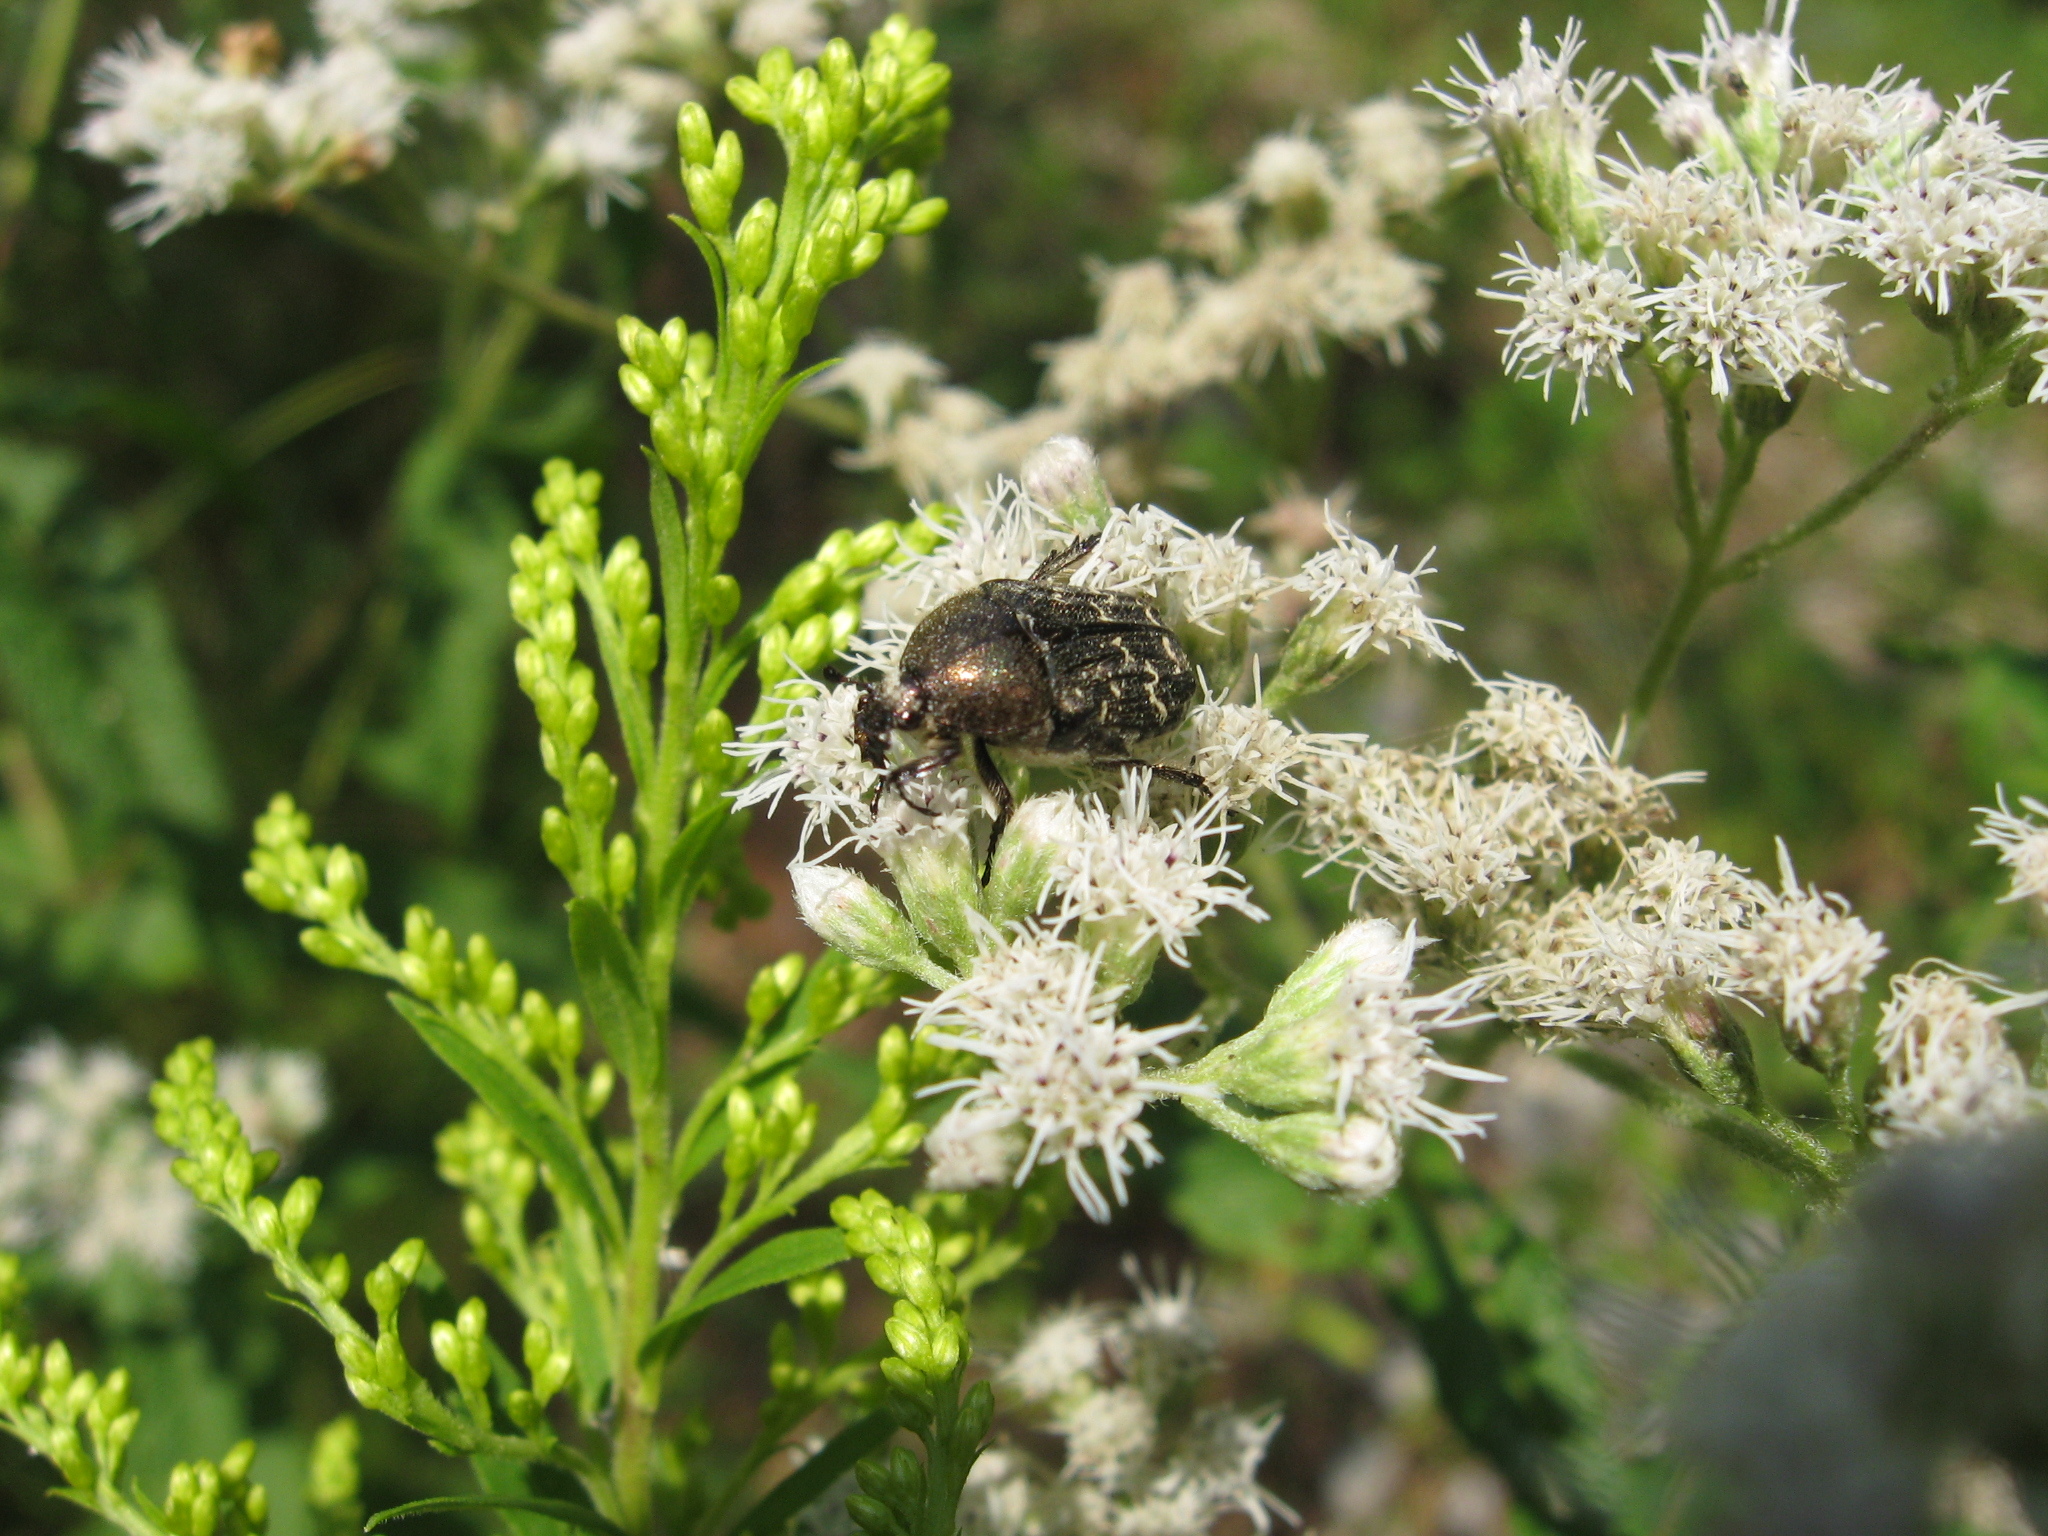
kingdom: Animalia
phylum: Arthropoda
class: Insecta
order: Coleoptera
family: Scarabaeidae
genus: Euphoria
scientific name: Euphoria sepulcralis
